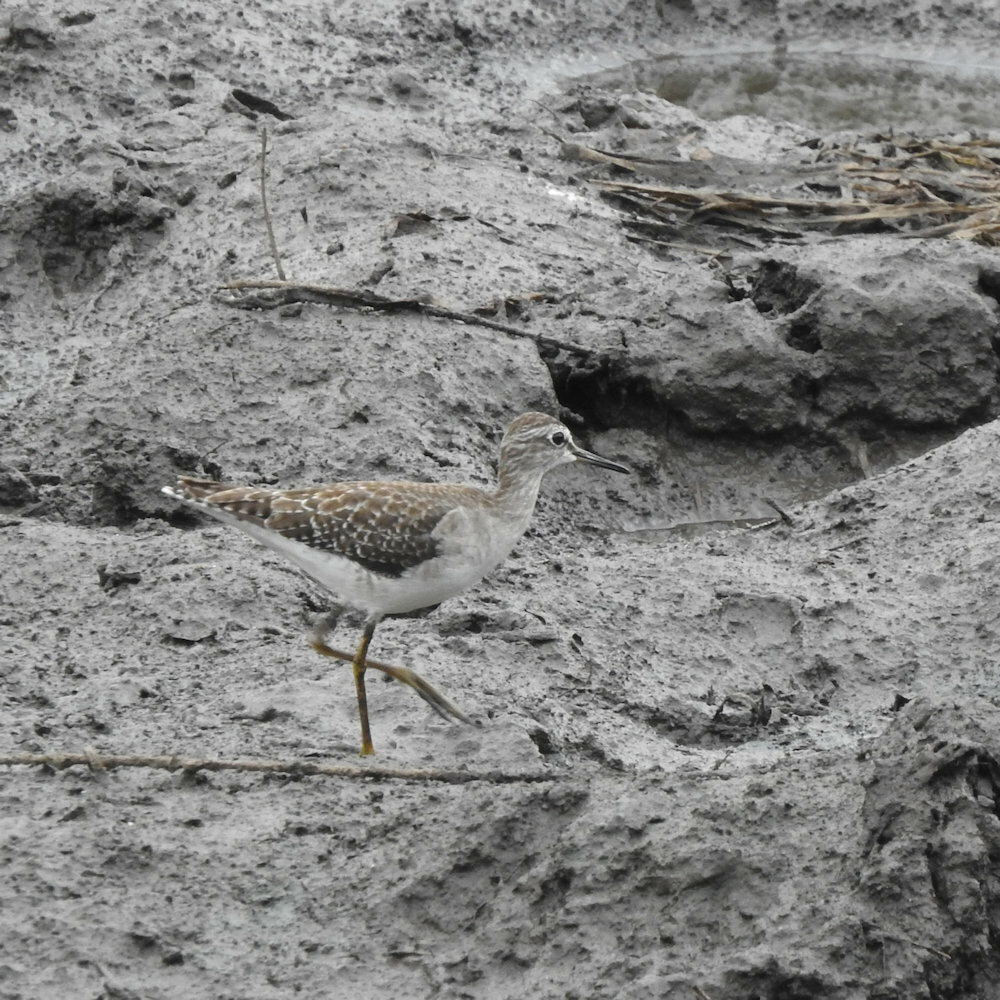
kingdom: Animalia
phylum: Chordata
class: Aves
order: Charadriiformes
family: Scolopacidae
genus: Tringa
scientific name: Tringa glareola
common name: Wood sandpiper
